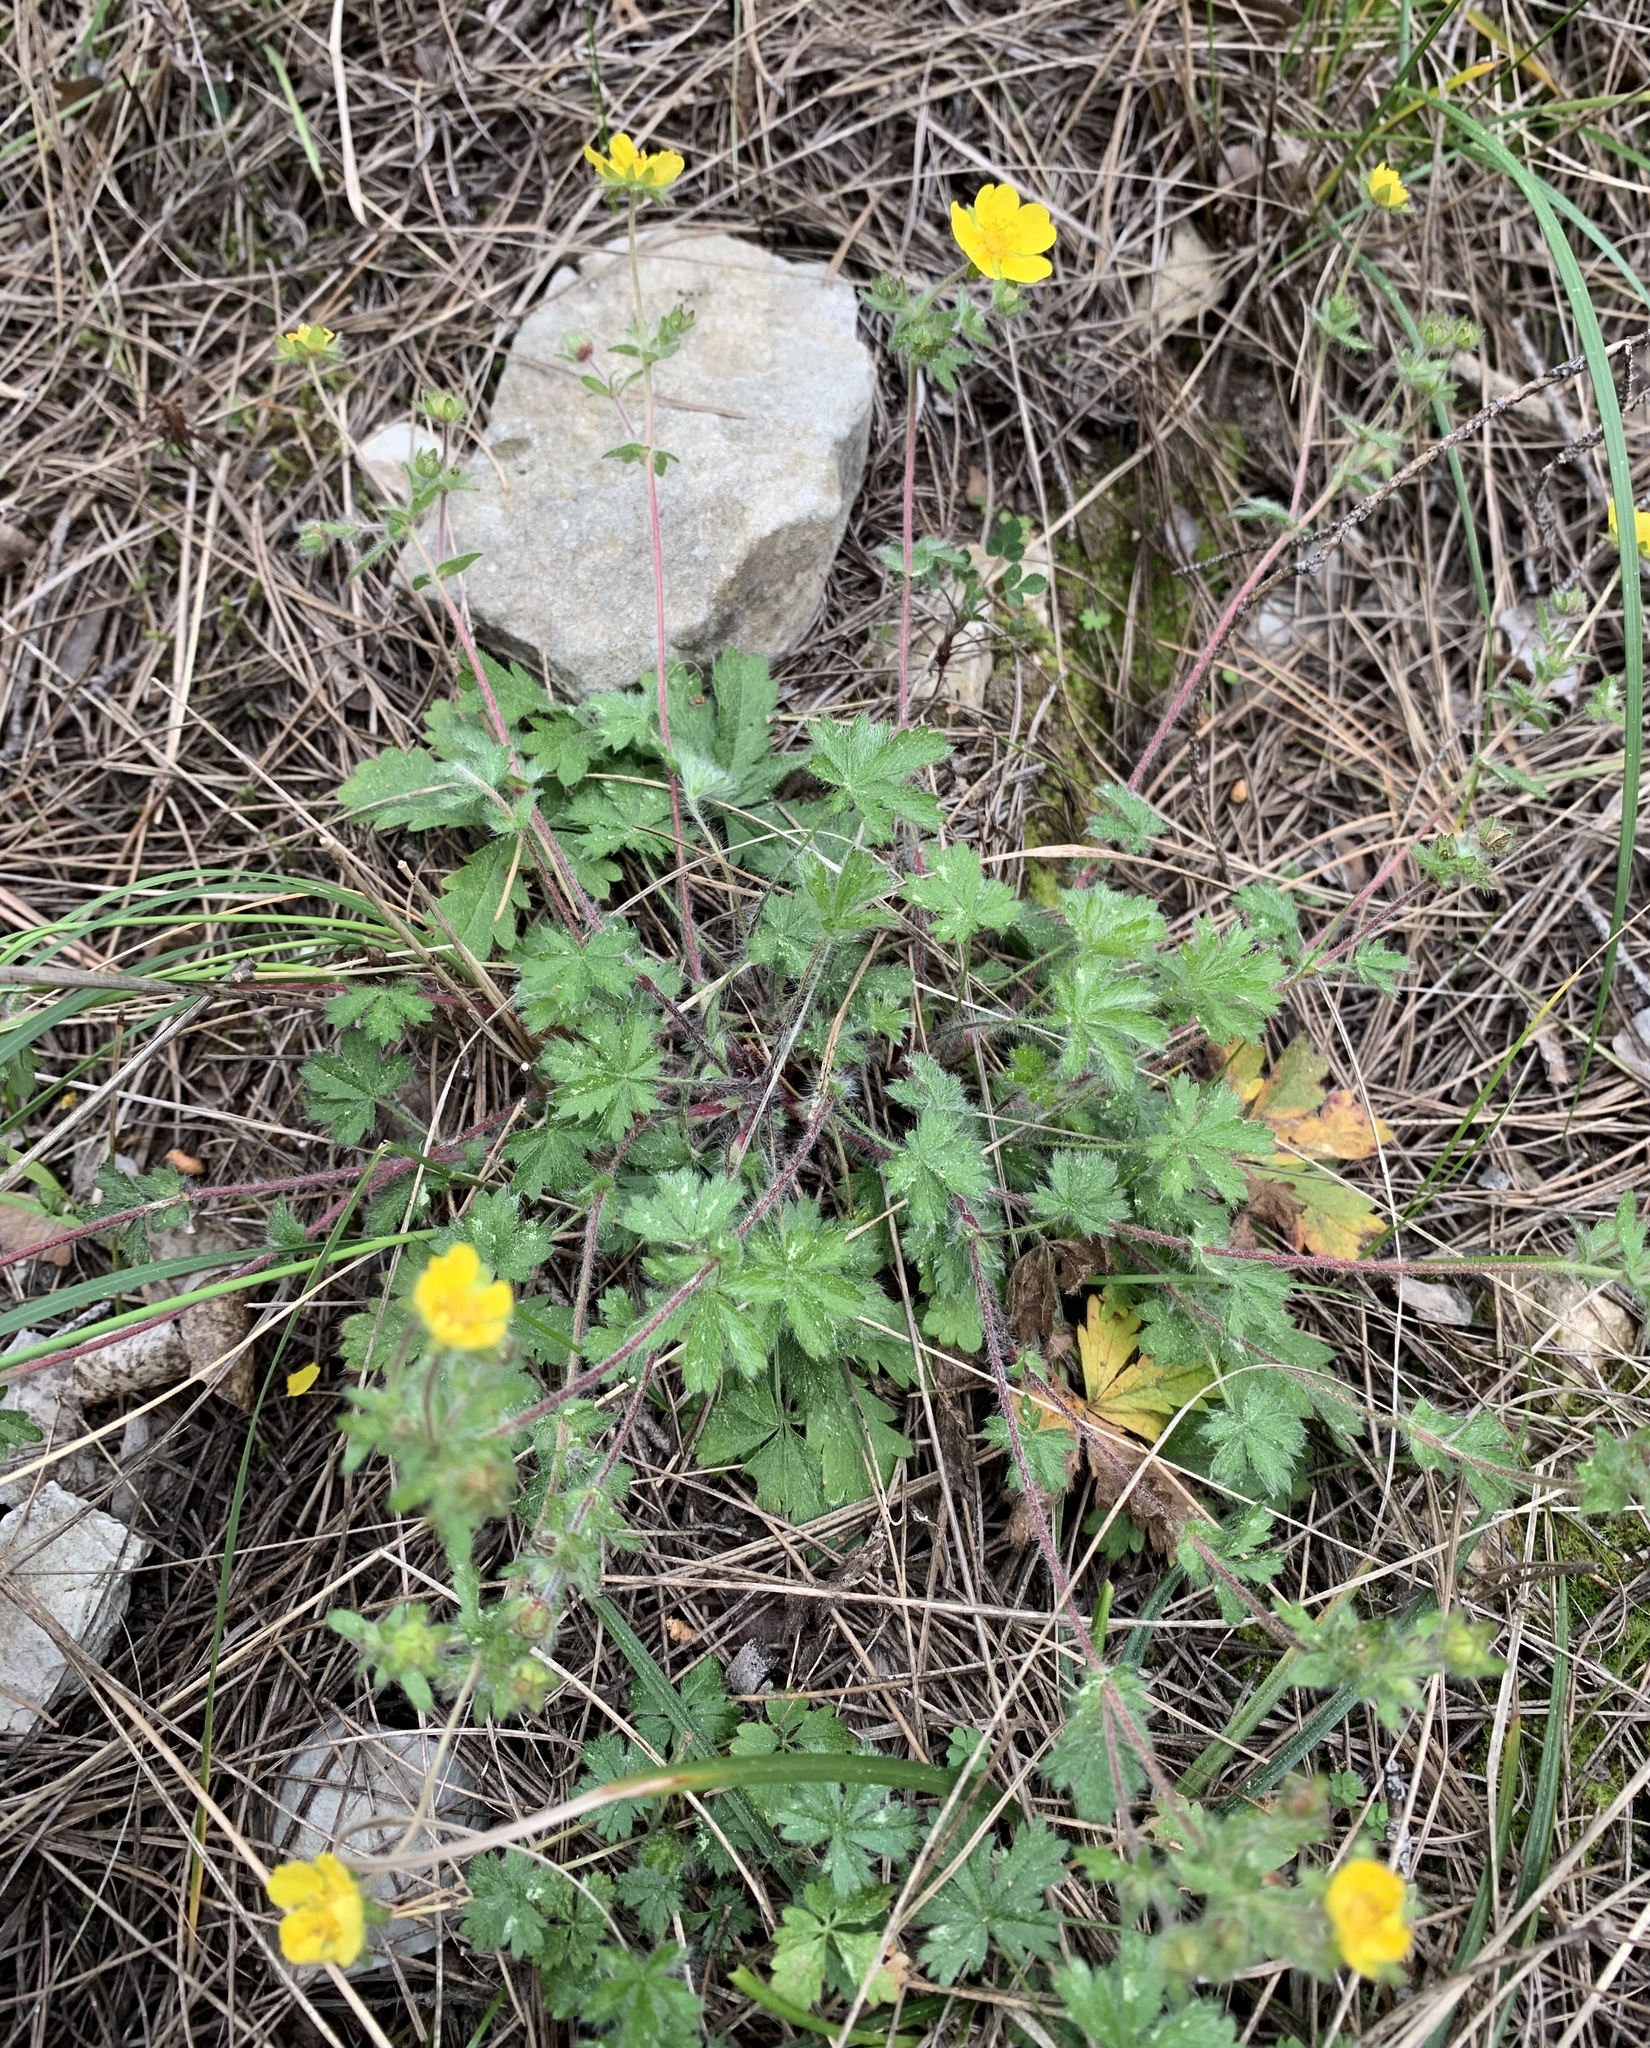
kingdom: Plantae
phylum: Tracheophyta
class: Magnoliopsida
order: Rosales
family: Rosaceae
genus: Potentilla
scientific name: Potentilla heptaphylla
